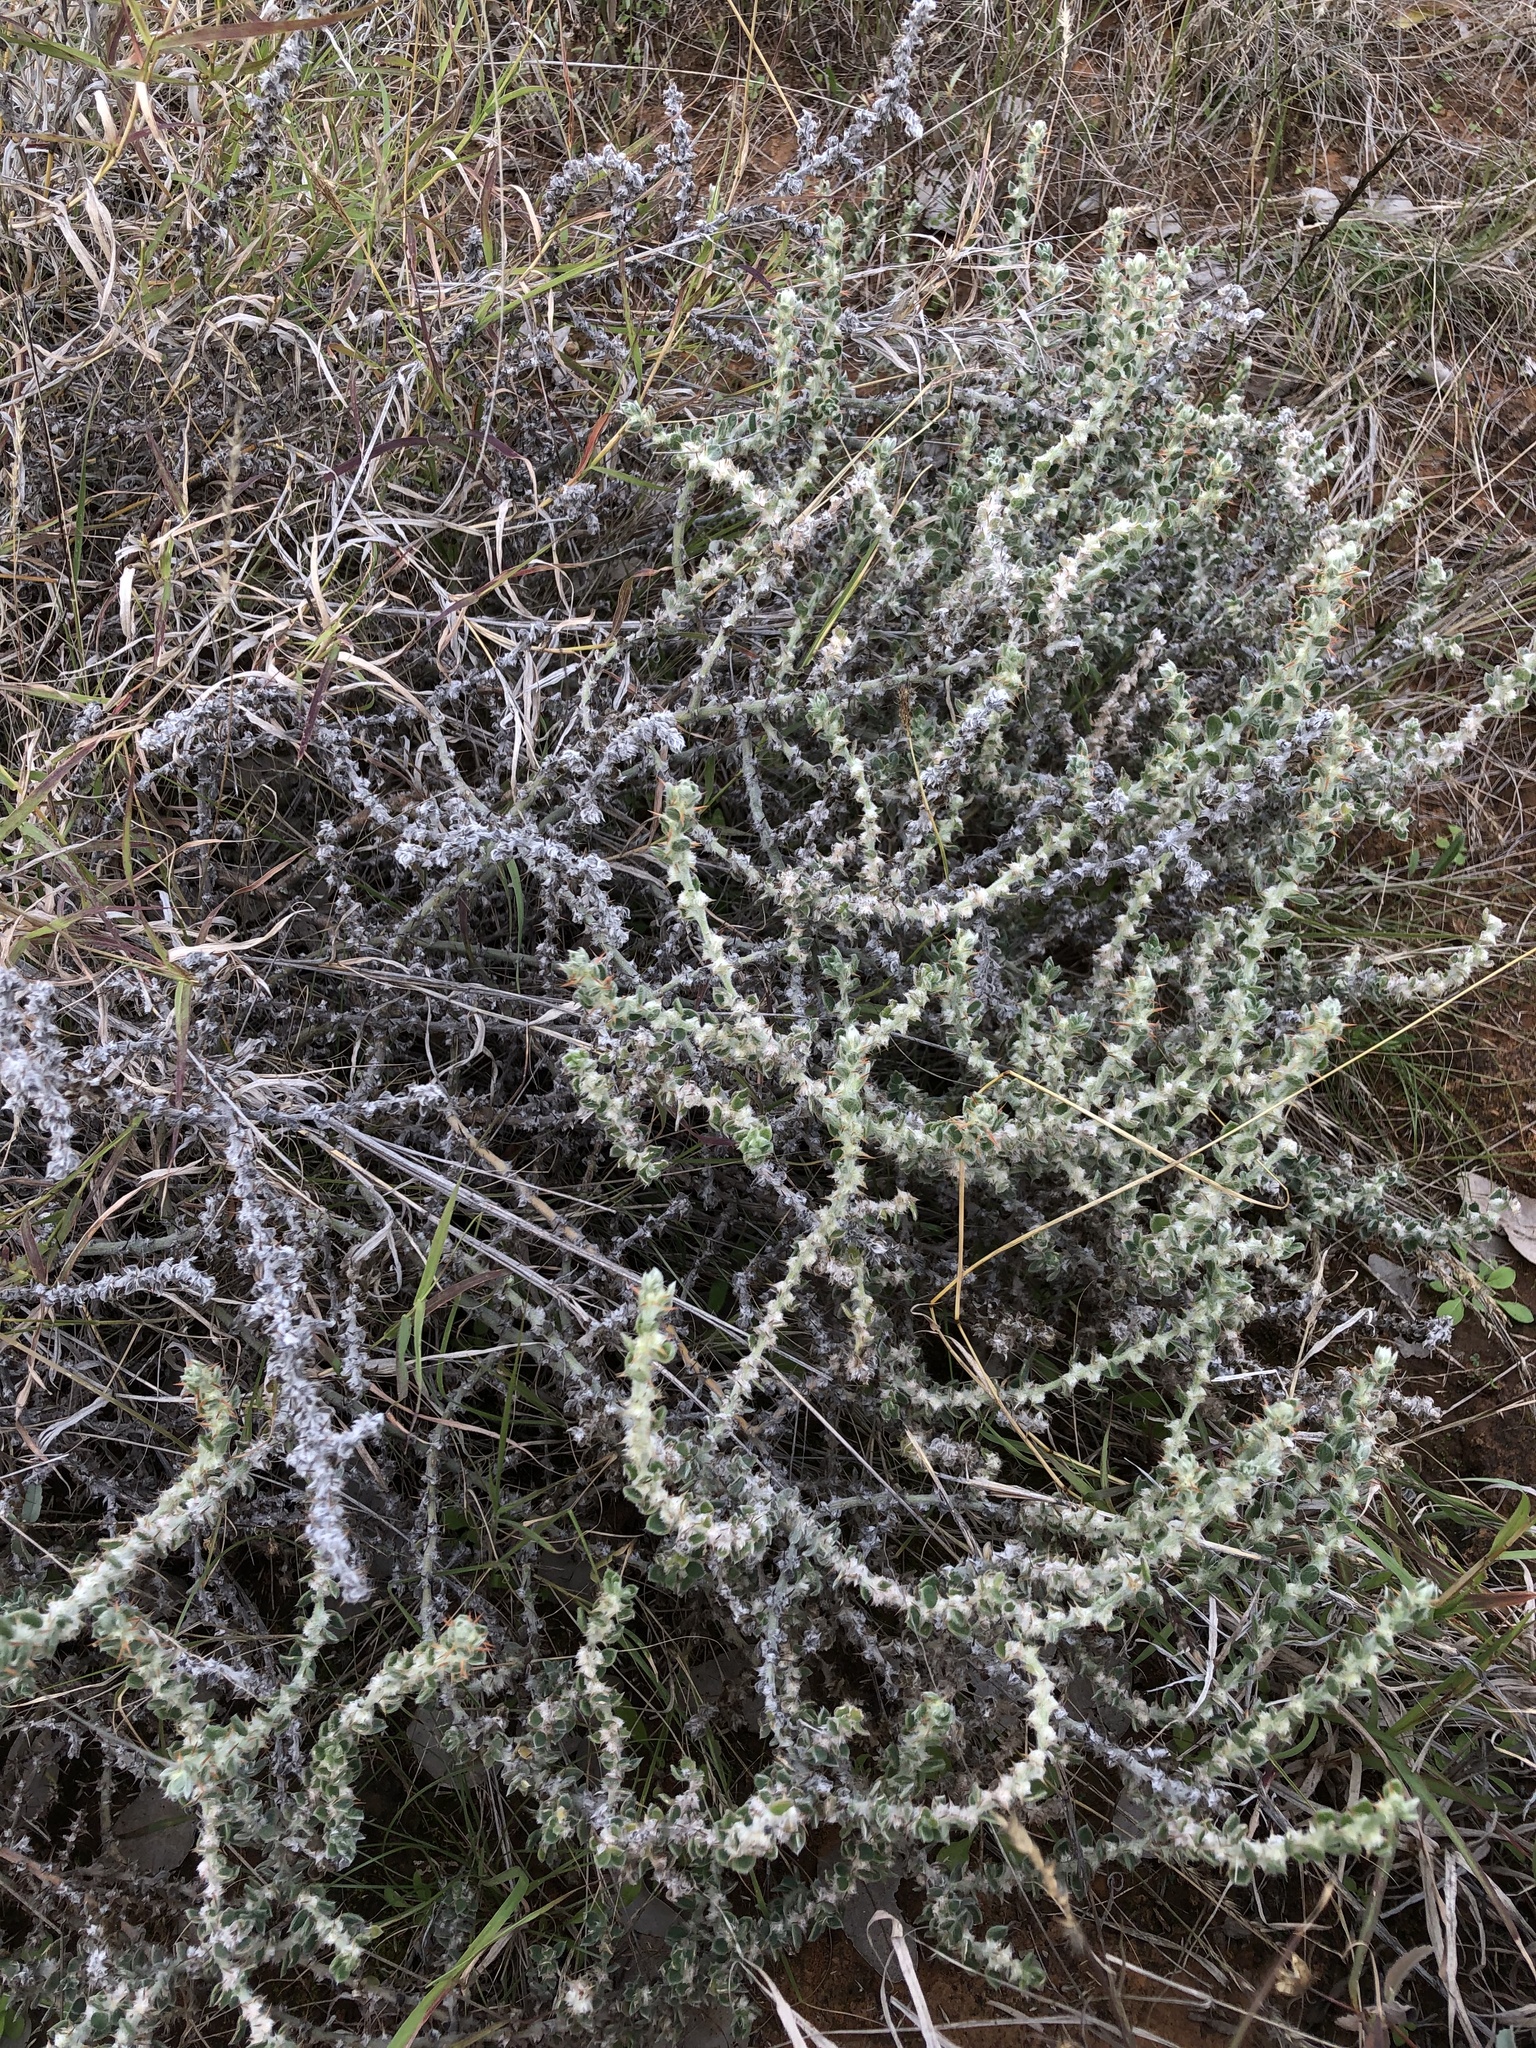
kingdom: Plantae
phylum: Tracheophyta
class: Magnoliopsida
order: Caryophyllales
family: Amaranthaceae
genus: Sclerolaena
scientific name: Sclerolaena birchii
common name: Galvanized bur
